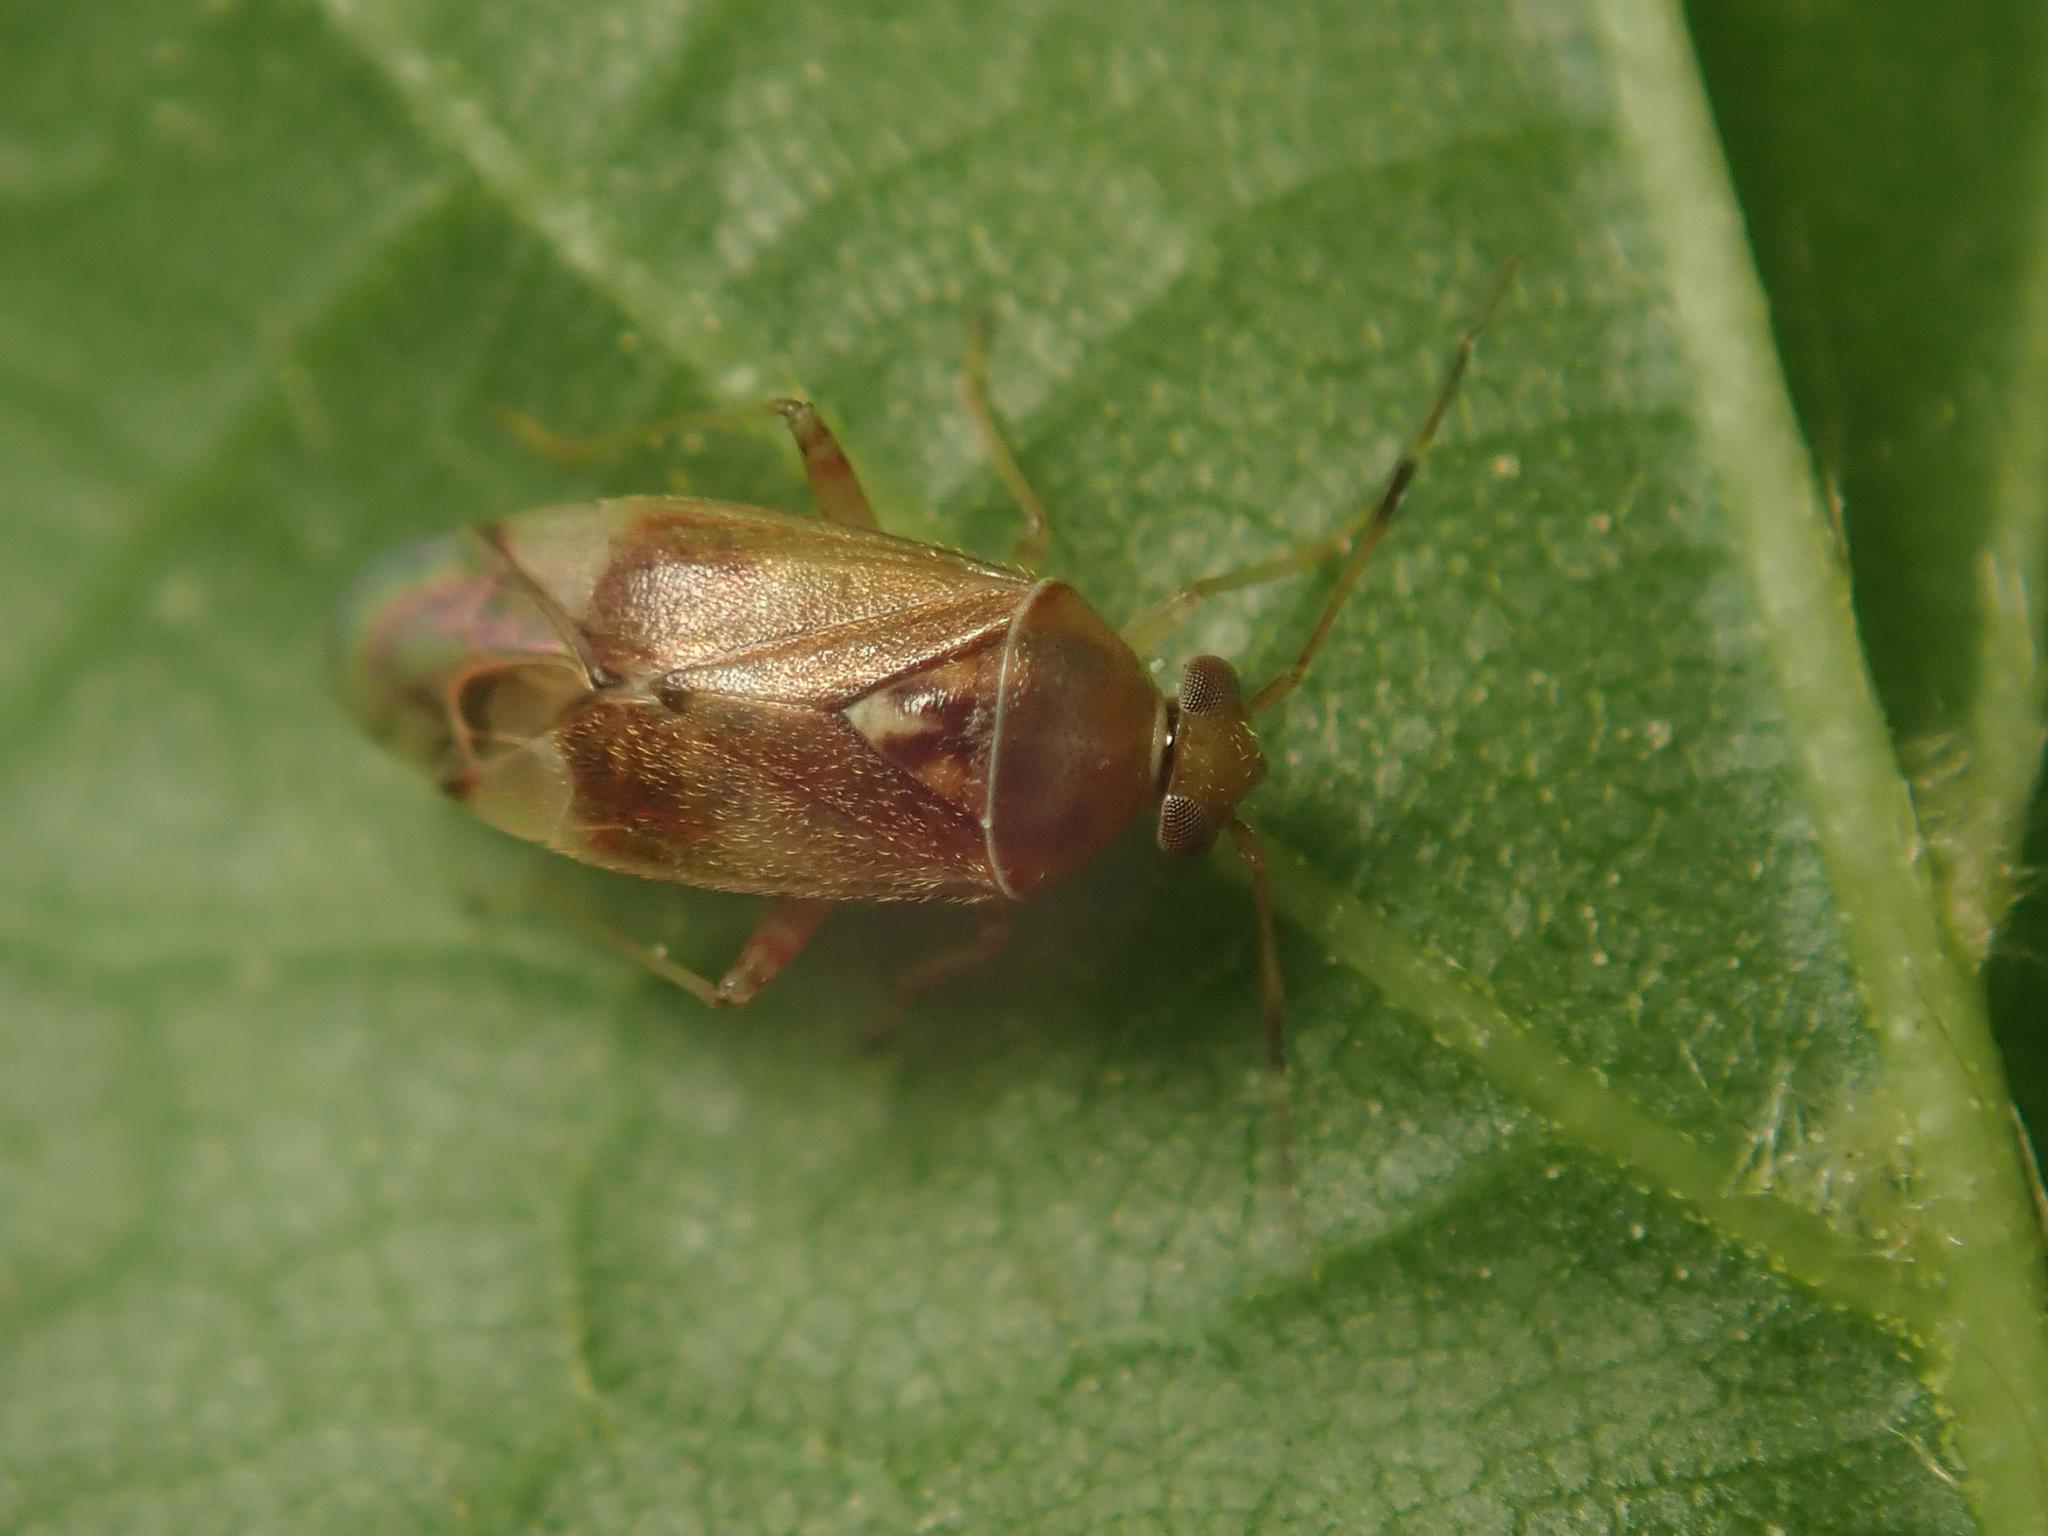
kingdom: Animalia
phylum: Arthropoda
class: Insecta
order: Hemiptera
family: Miridae
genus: Pinalitus
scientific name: Pinalitus cervinus
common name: Plant bug
